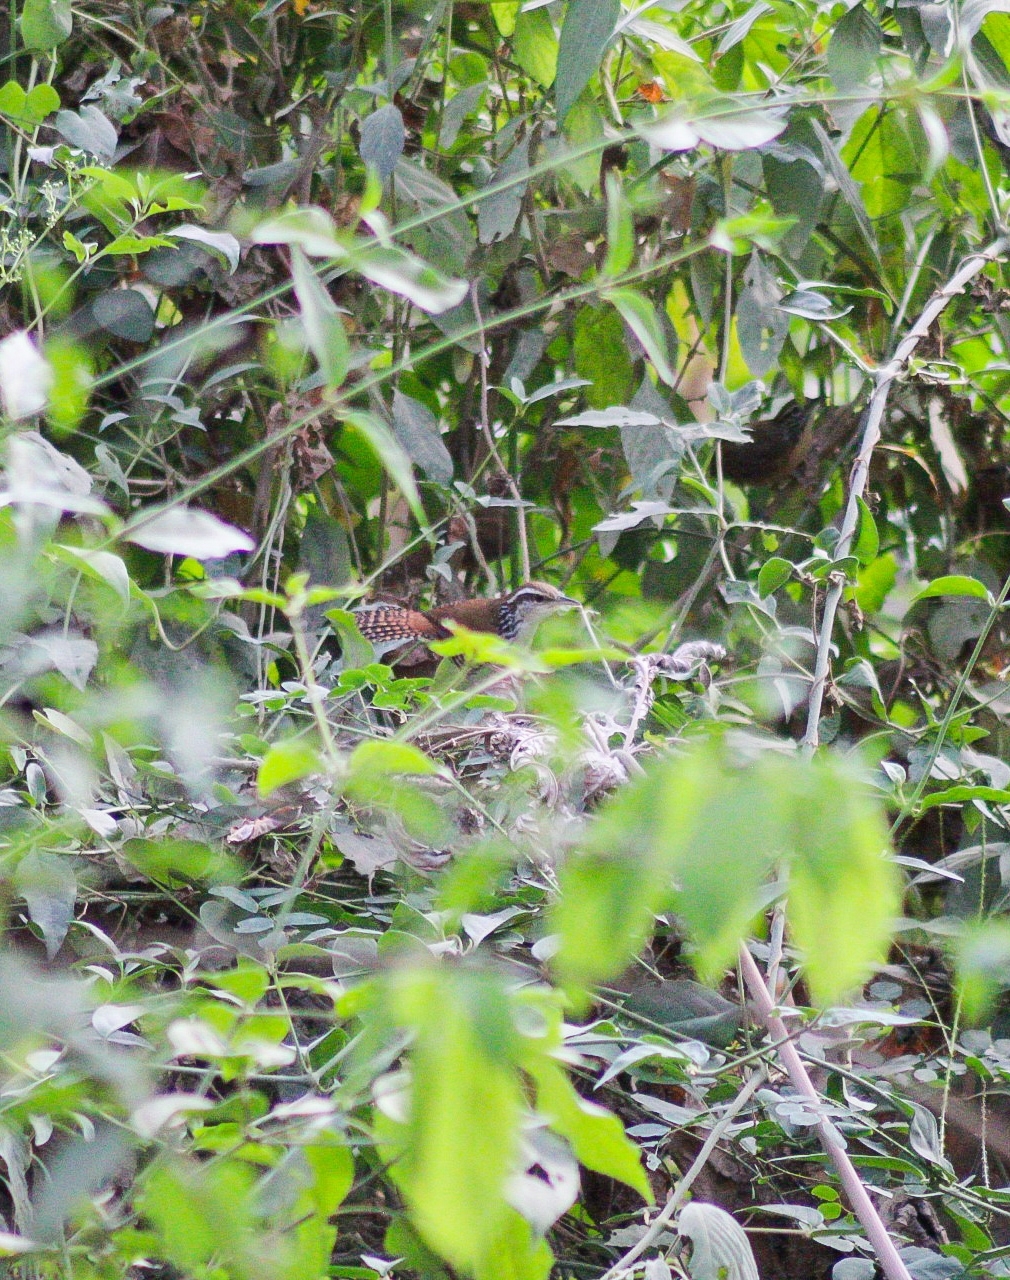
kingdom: Animalia
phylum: Chordata
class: Aves
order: Passeriformes
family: Troglodytidae
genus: Thryophilus
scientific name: Thryophilus pleurostictus
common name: Banded wren
